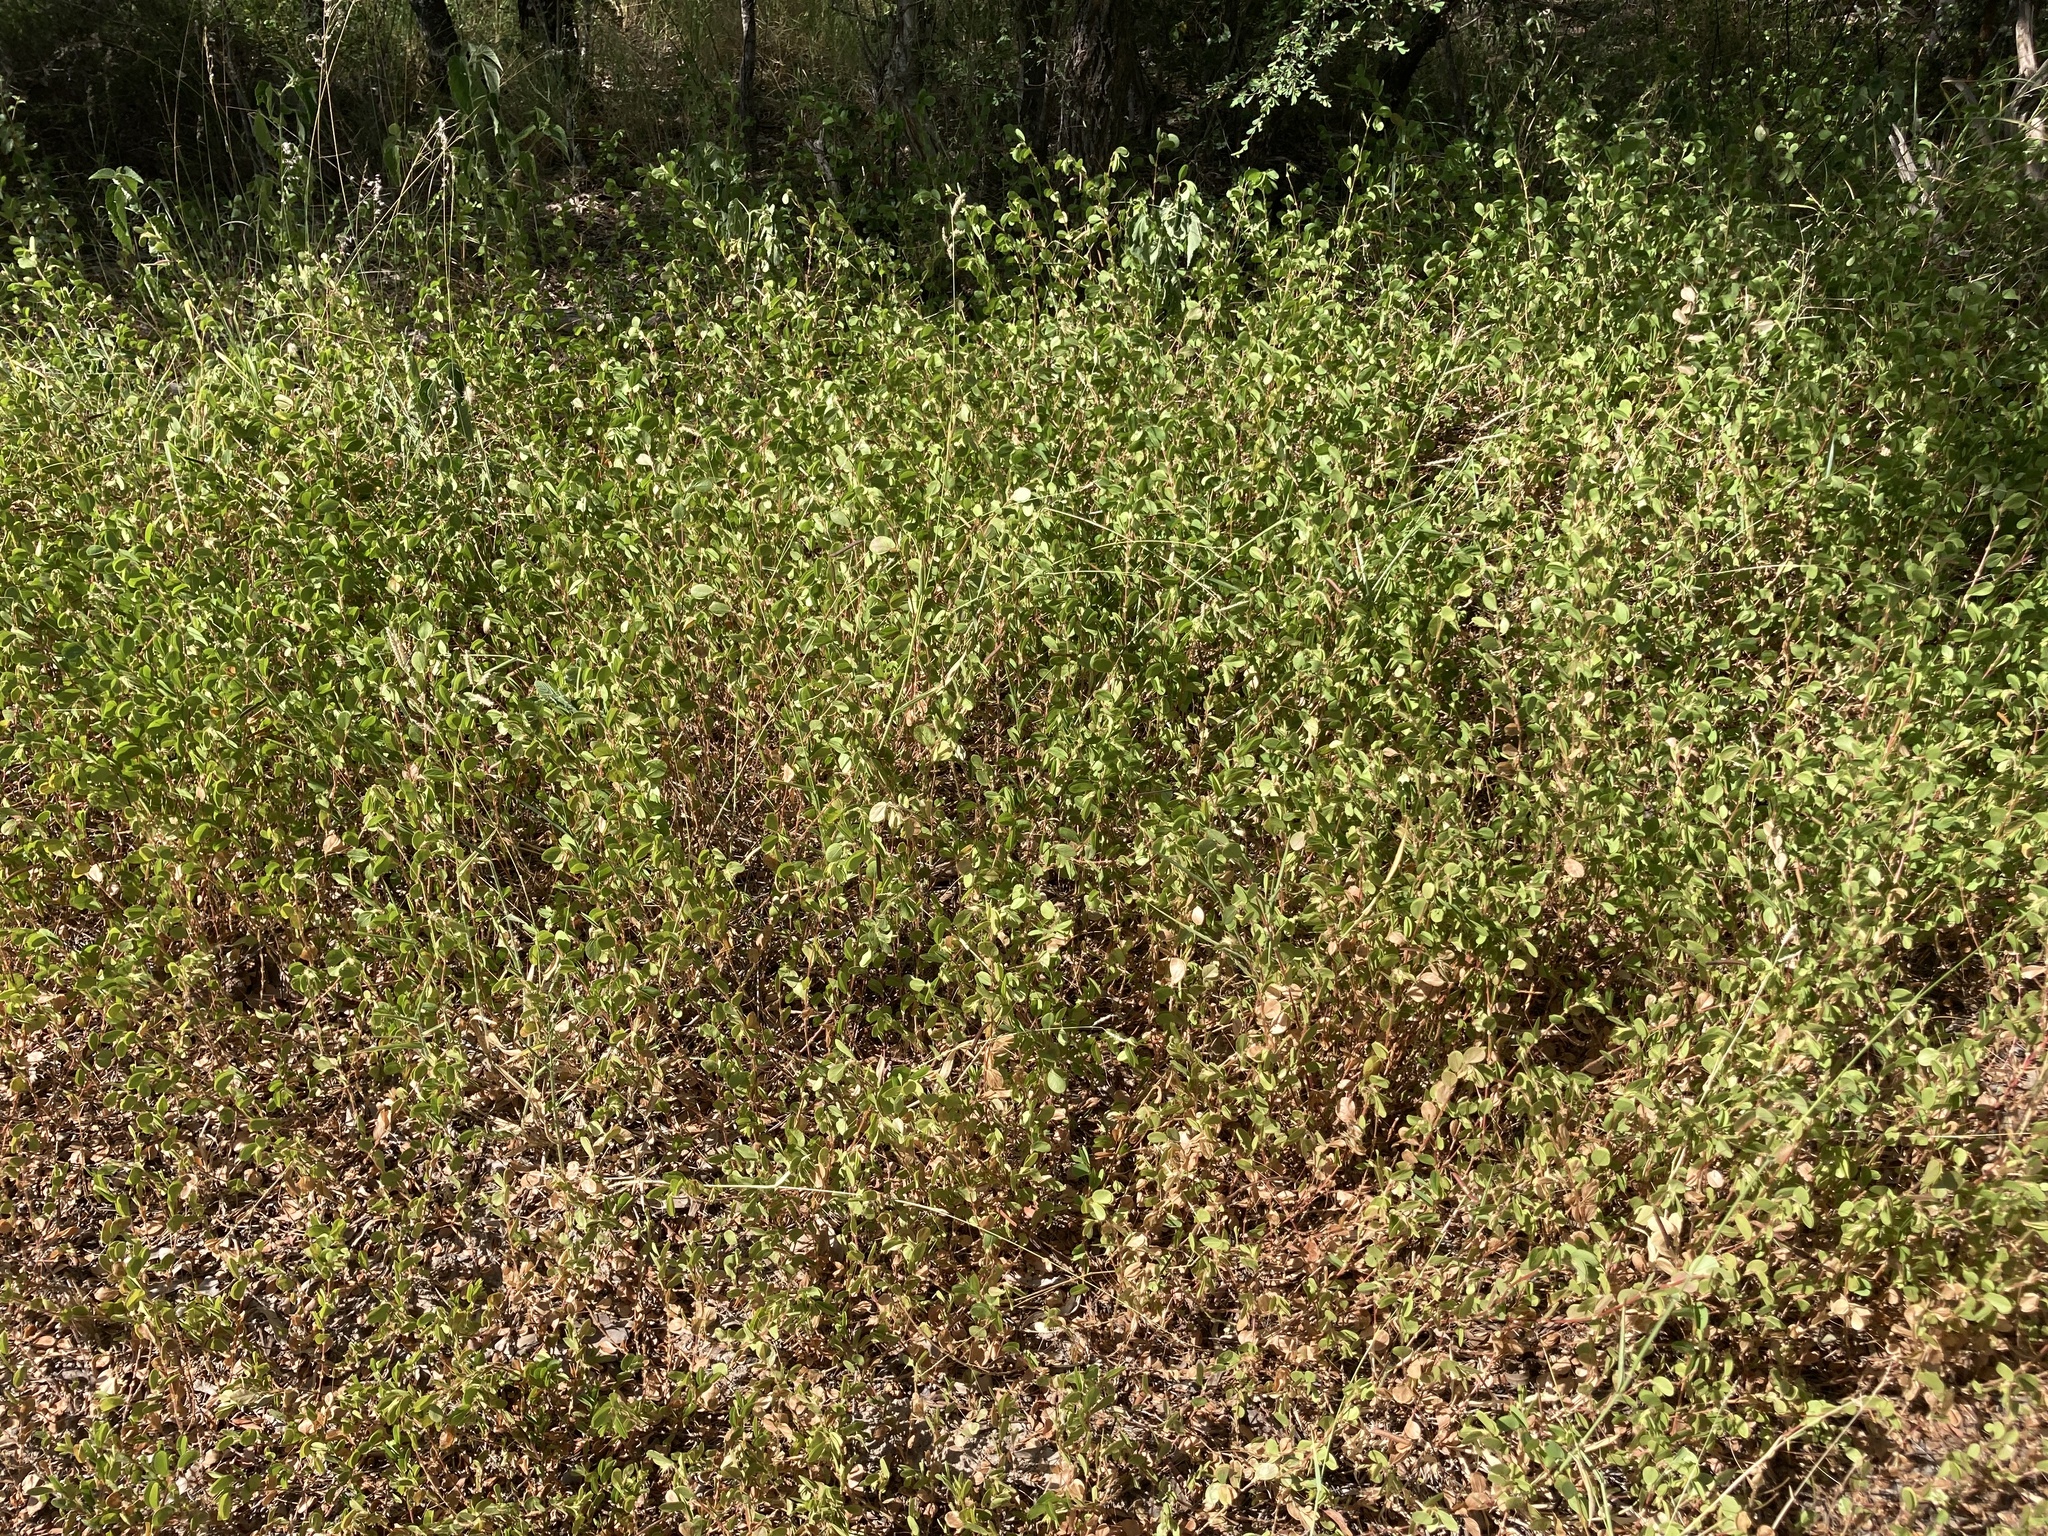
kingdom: Plantae
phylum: Tracheophyta
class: Magnoliopsida
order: Fabales
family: Fabaceae
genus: Chamaecrista
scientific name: Chamaecrista rotundifolia
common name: Round-leaf cassia
